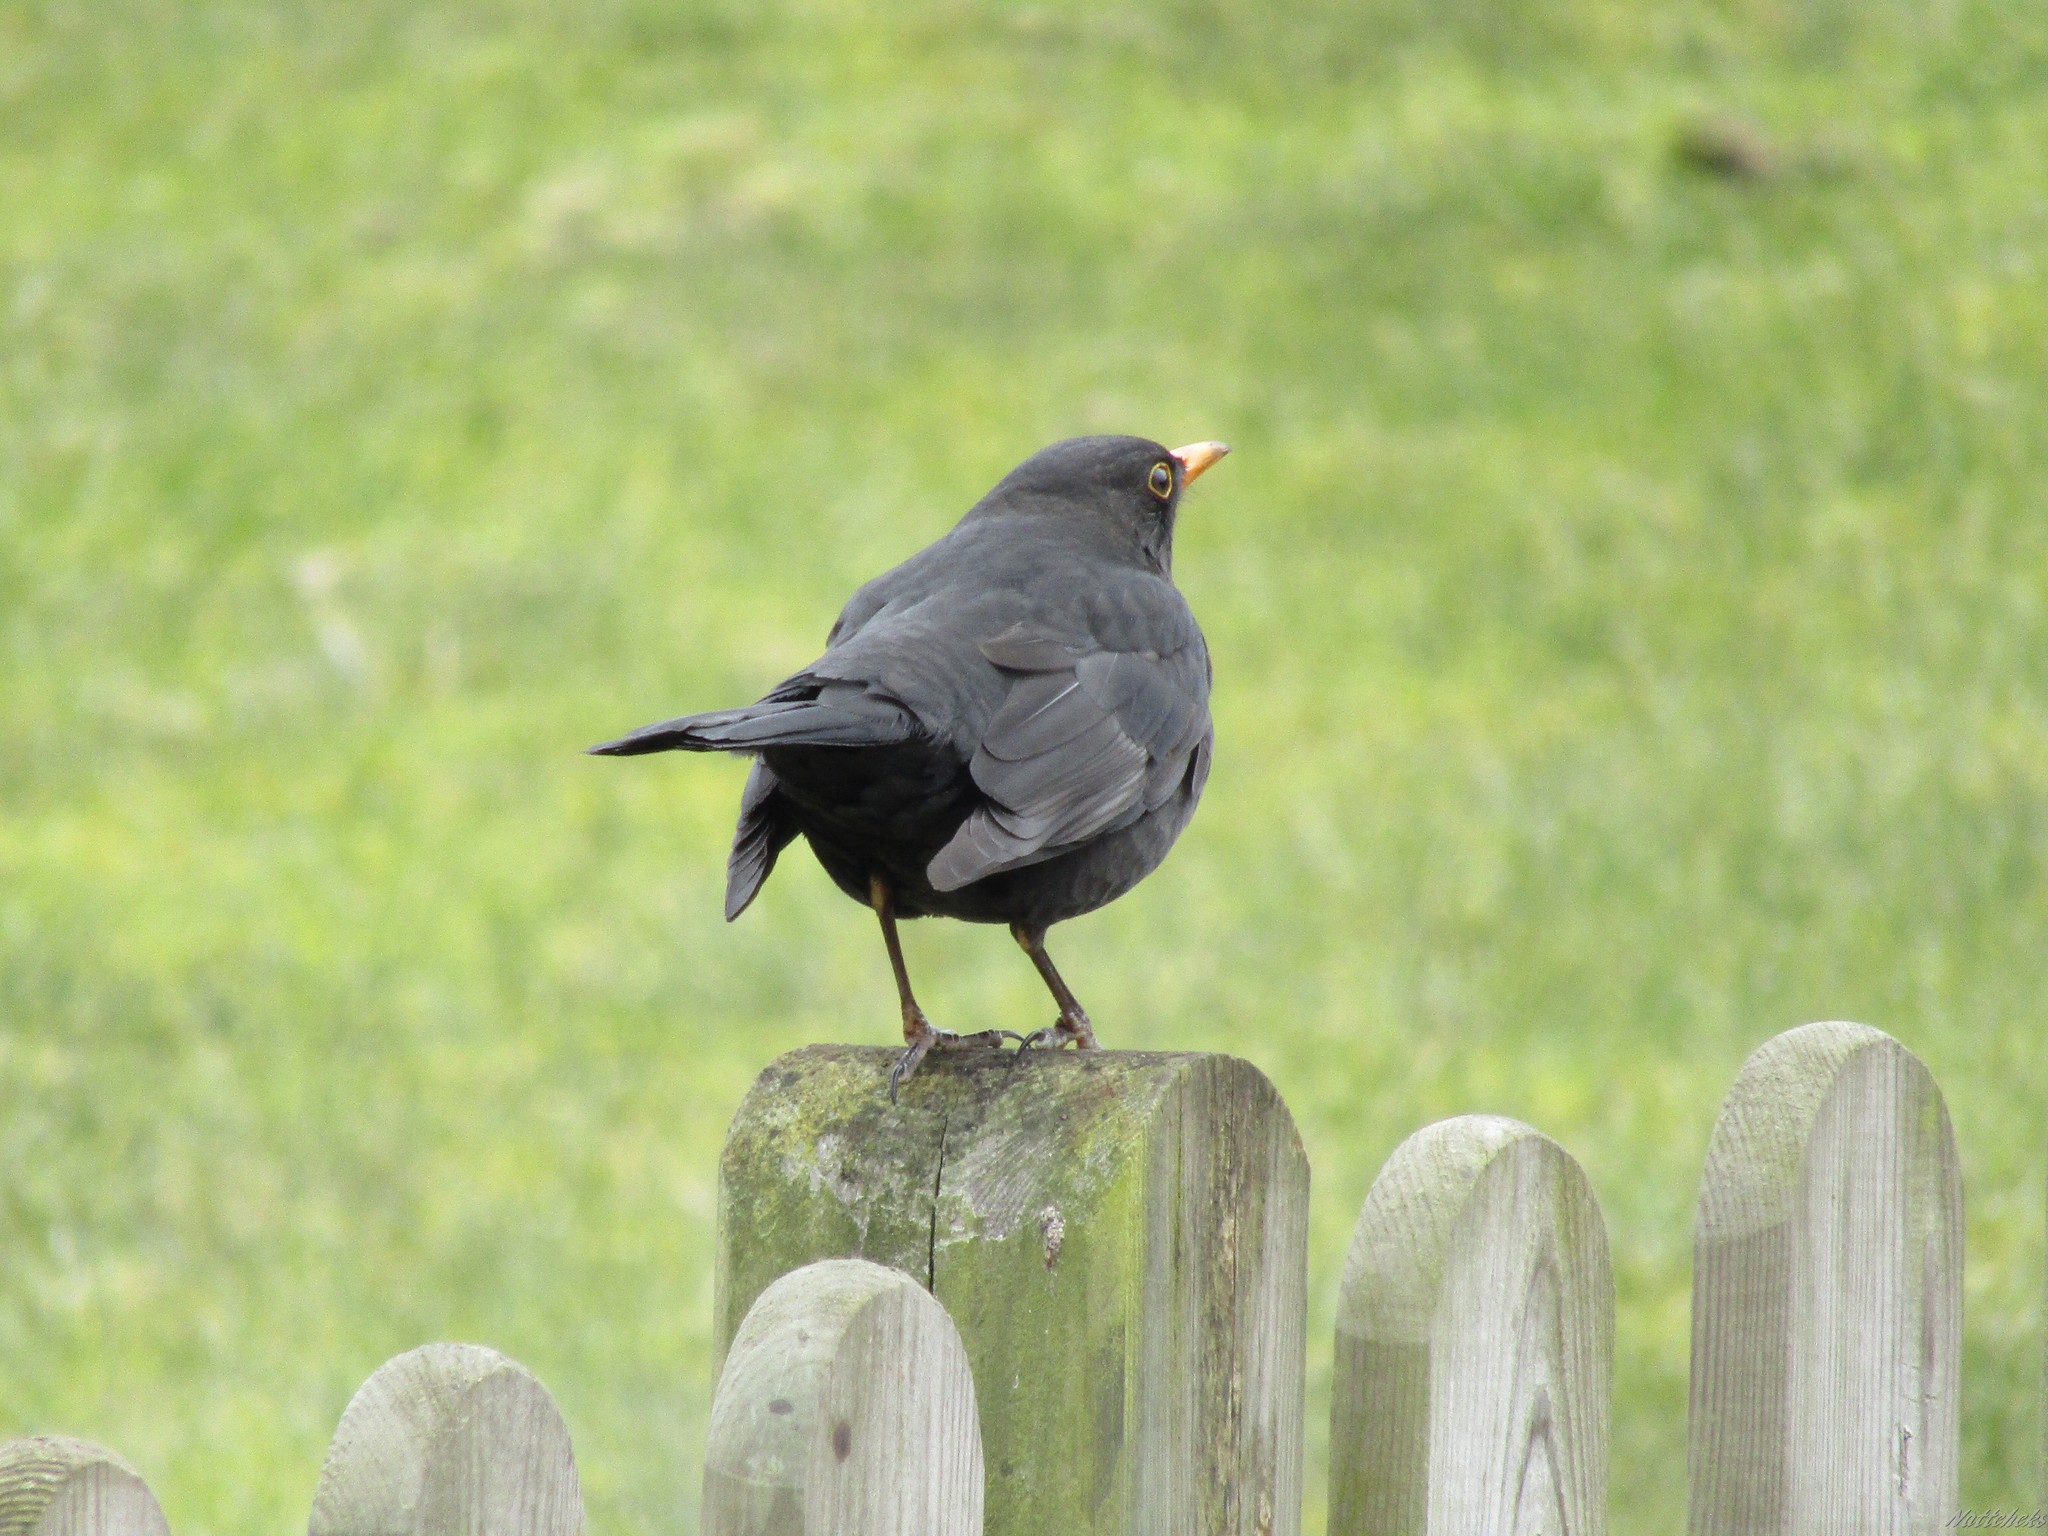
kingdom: Animalia
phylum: Chordata
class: Aves
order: Passeriformes
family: Turdidae
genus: Turdus
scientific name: Turdus merula
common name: Common blackbird
